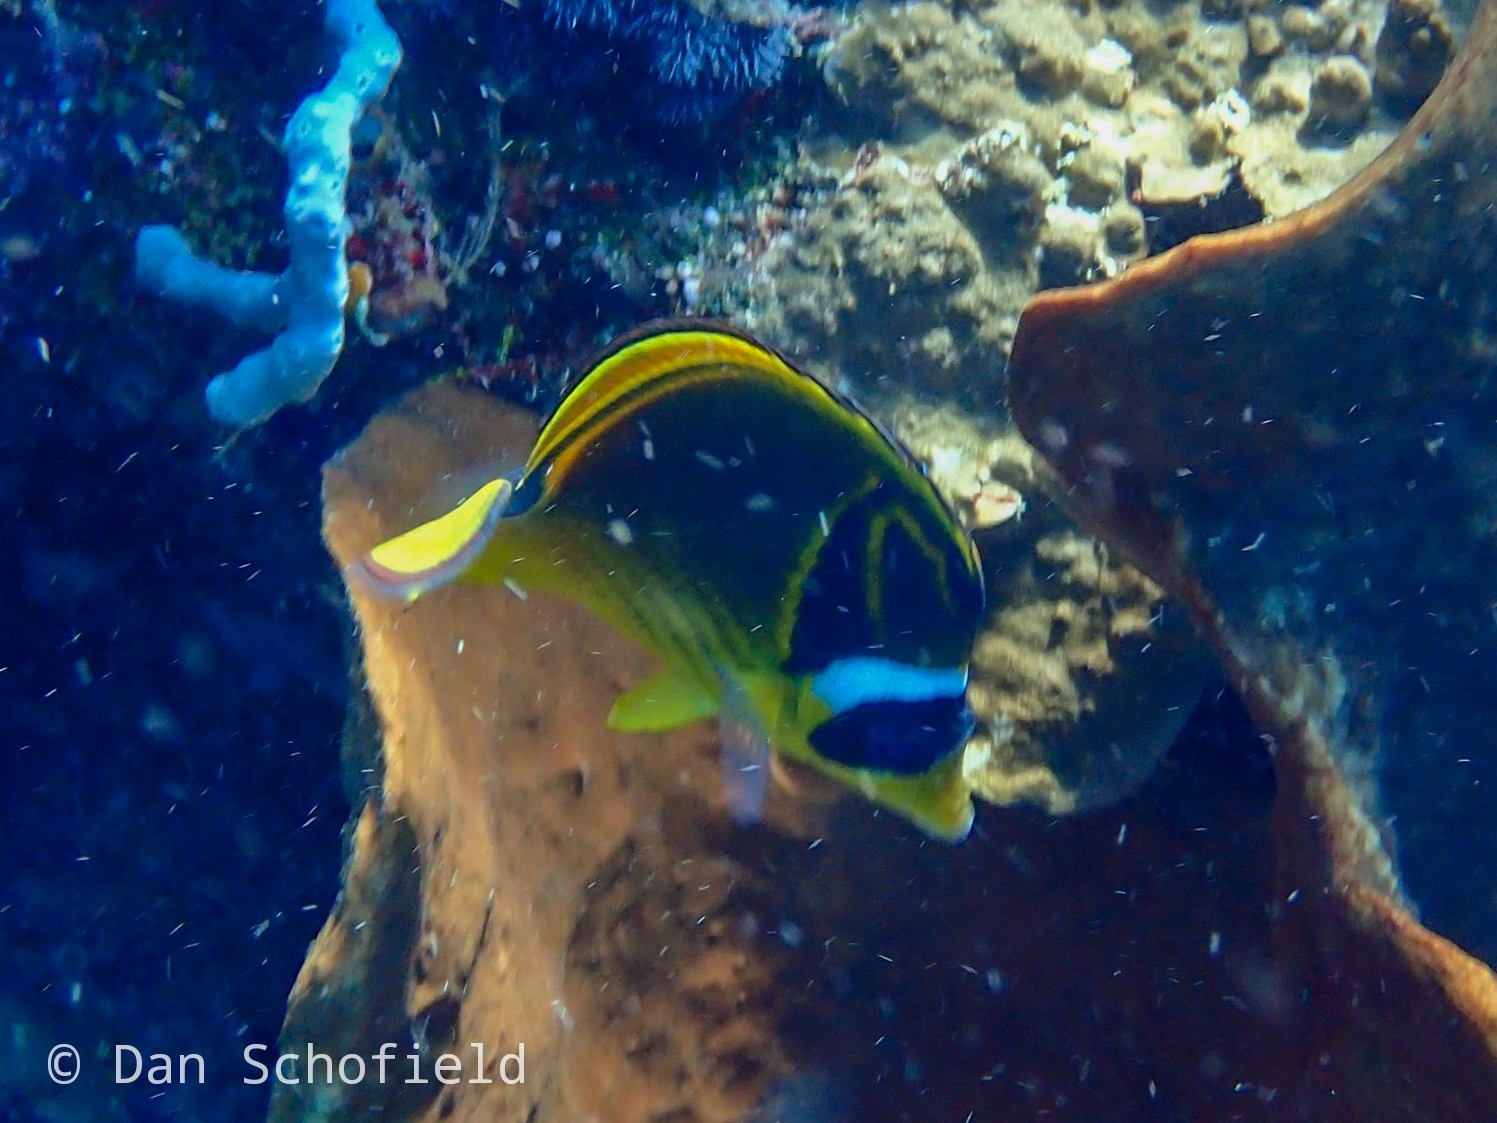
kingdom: Animalia
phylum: Chordata
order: Perciformes
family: Chaetodontidae
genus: Chaetodon
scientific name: Chaetodon lunula
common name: Raccoon butterflyfish
